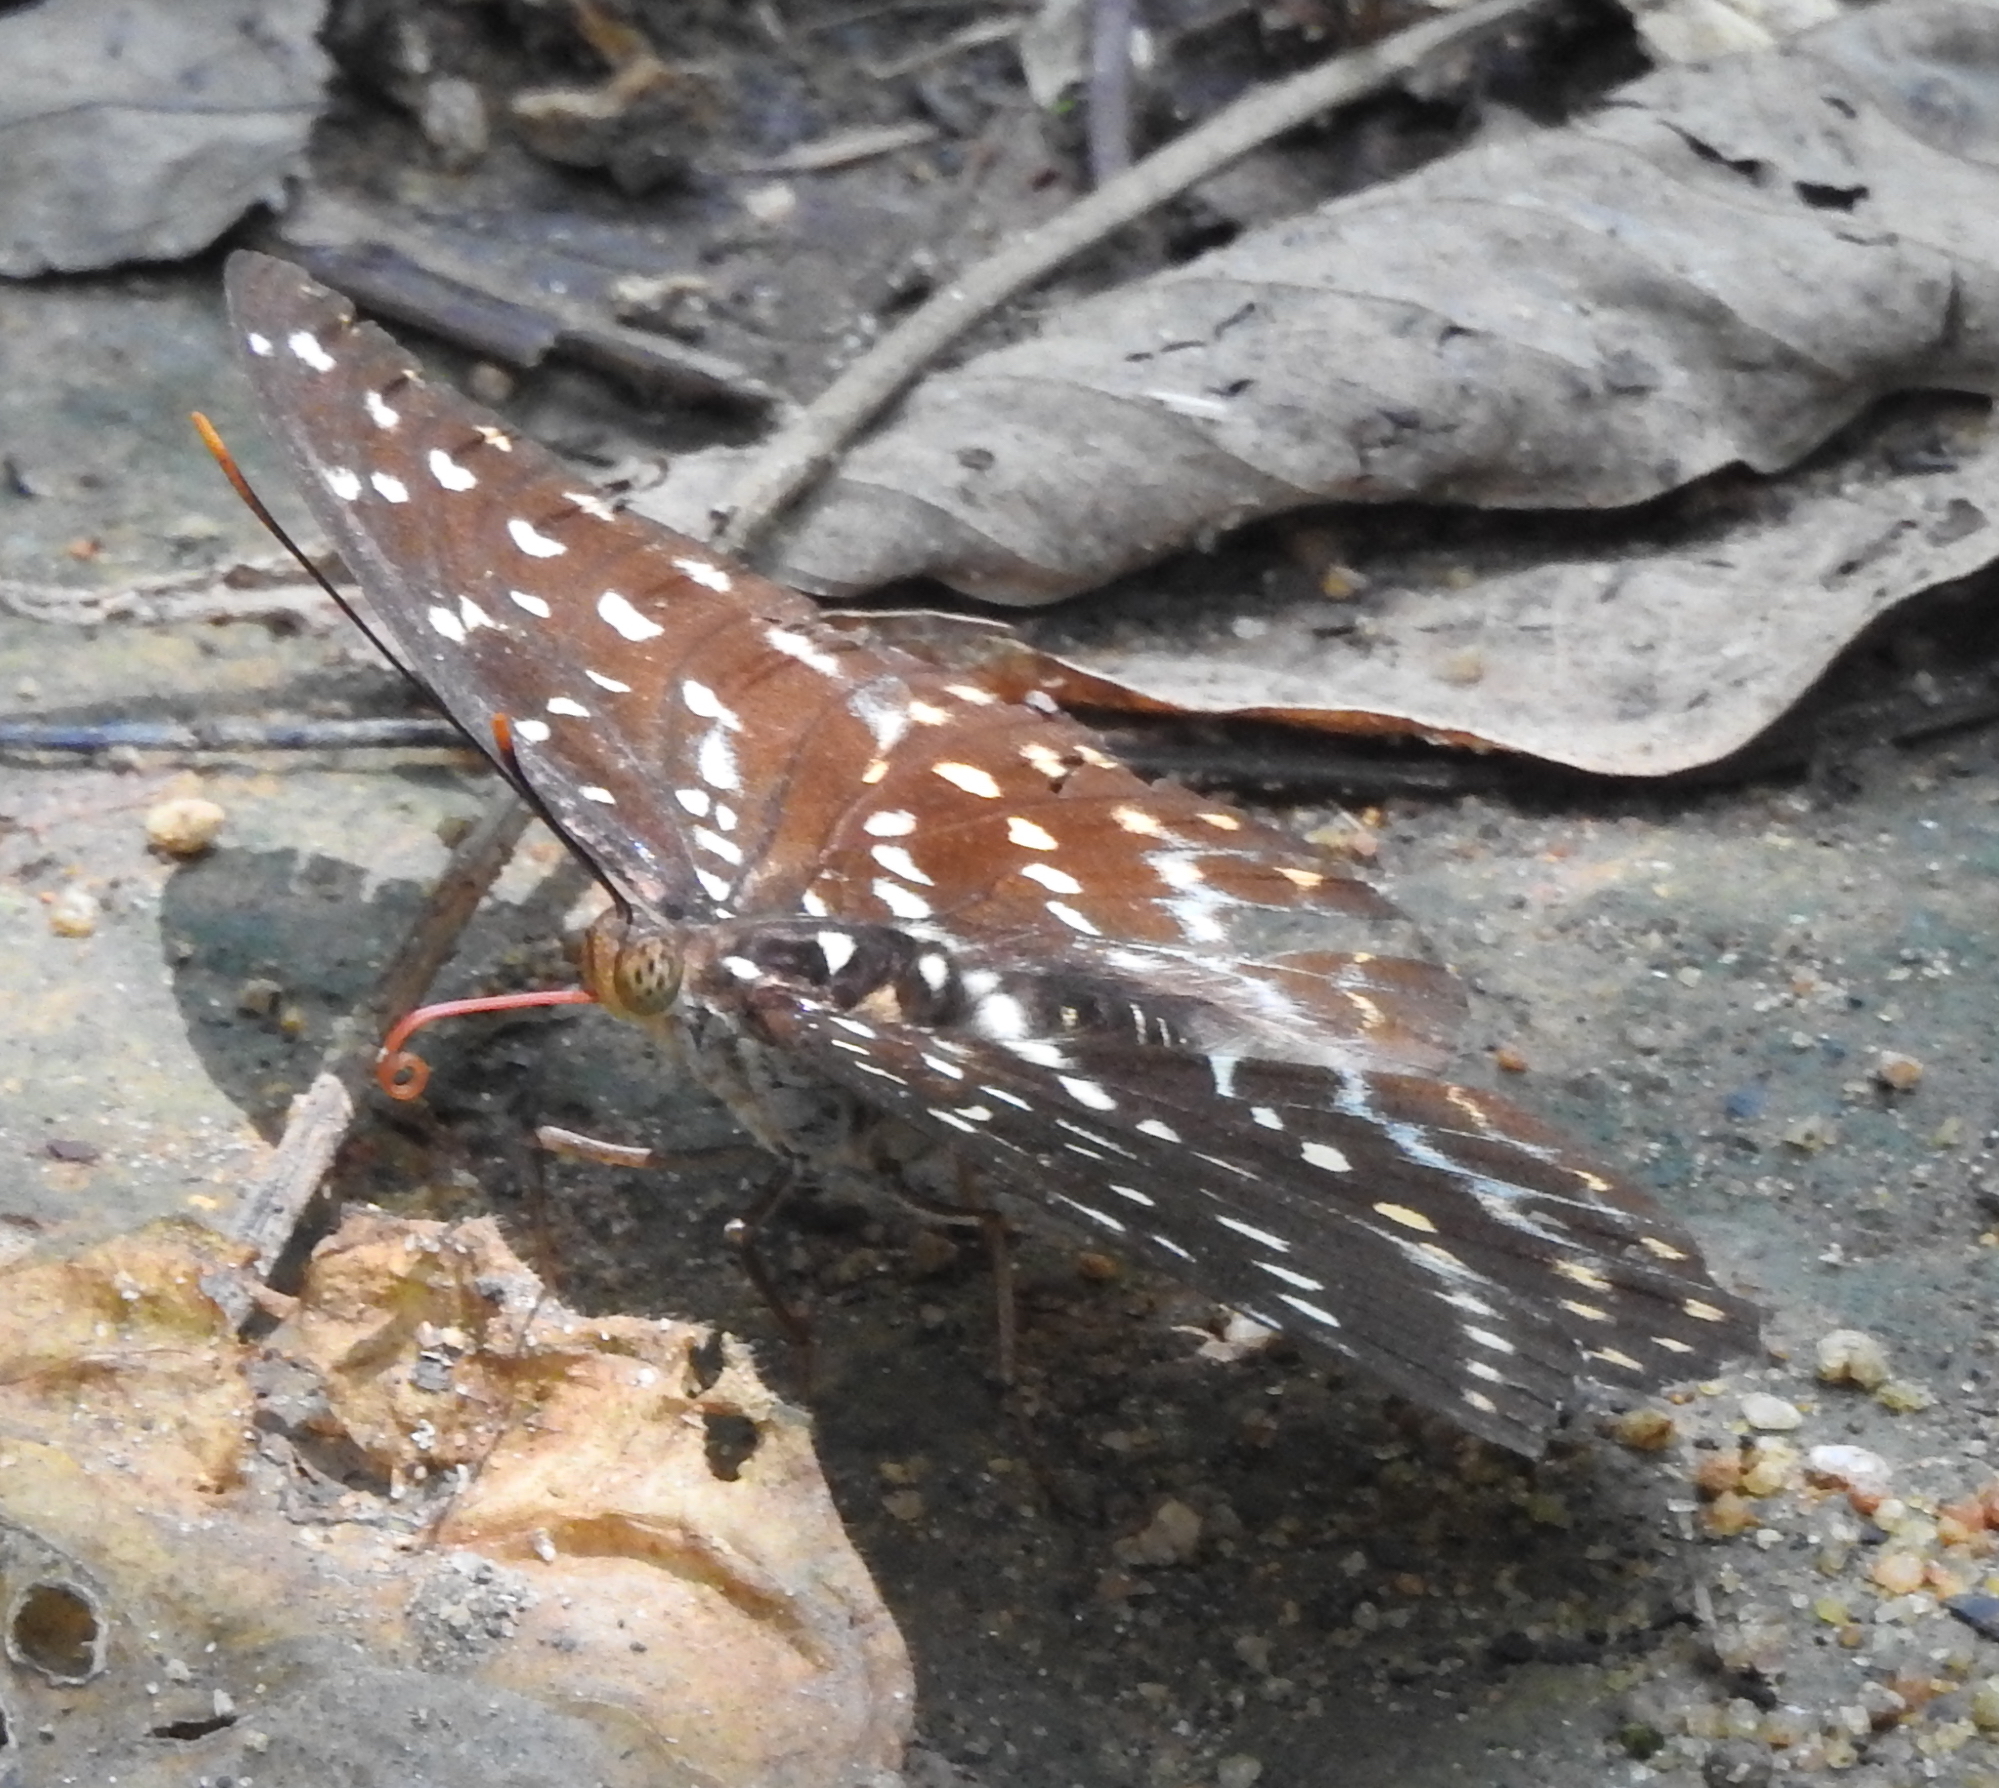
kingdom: Animalia
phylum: Arthropoda
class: Insecta
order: Lepidoptera
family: Nymphalidae
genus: Lexias
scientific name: Lexias pardalis
